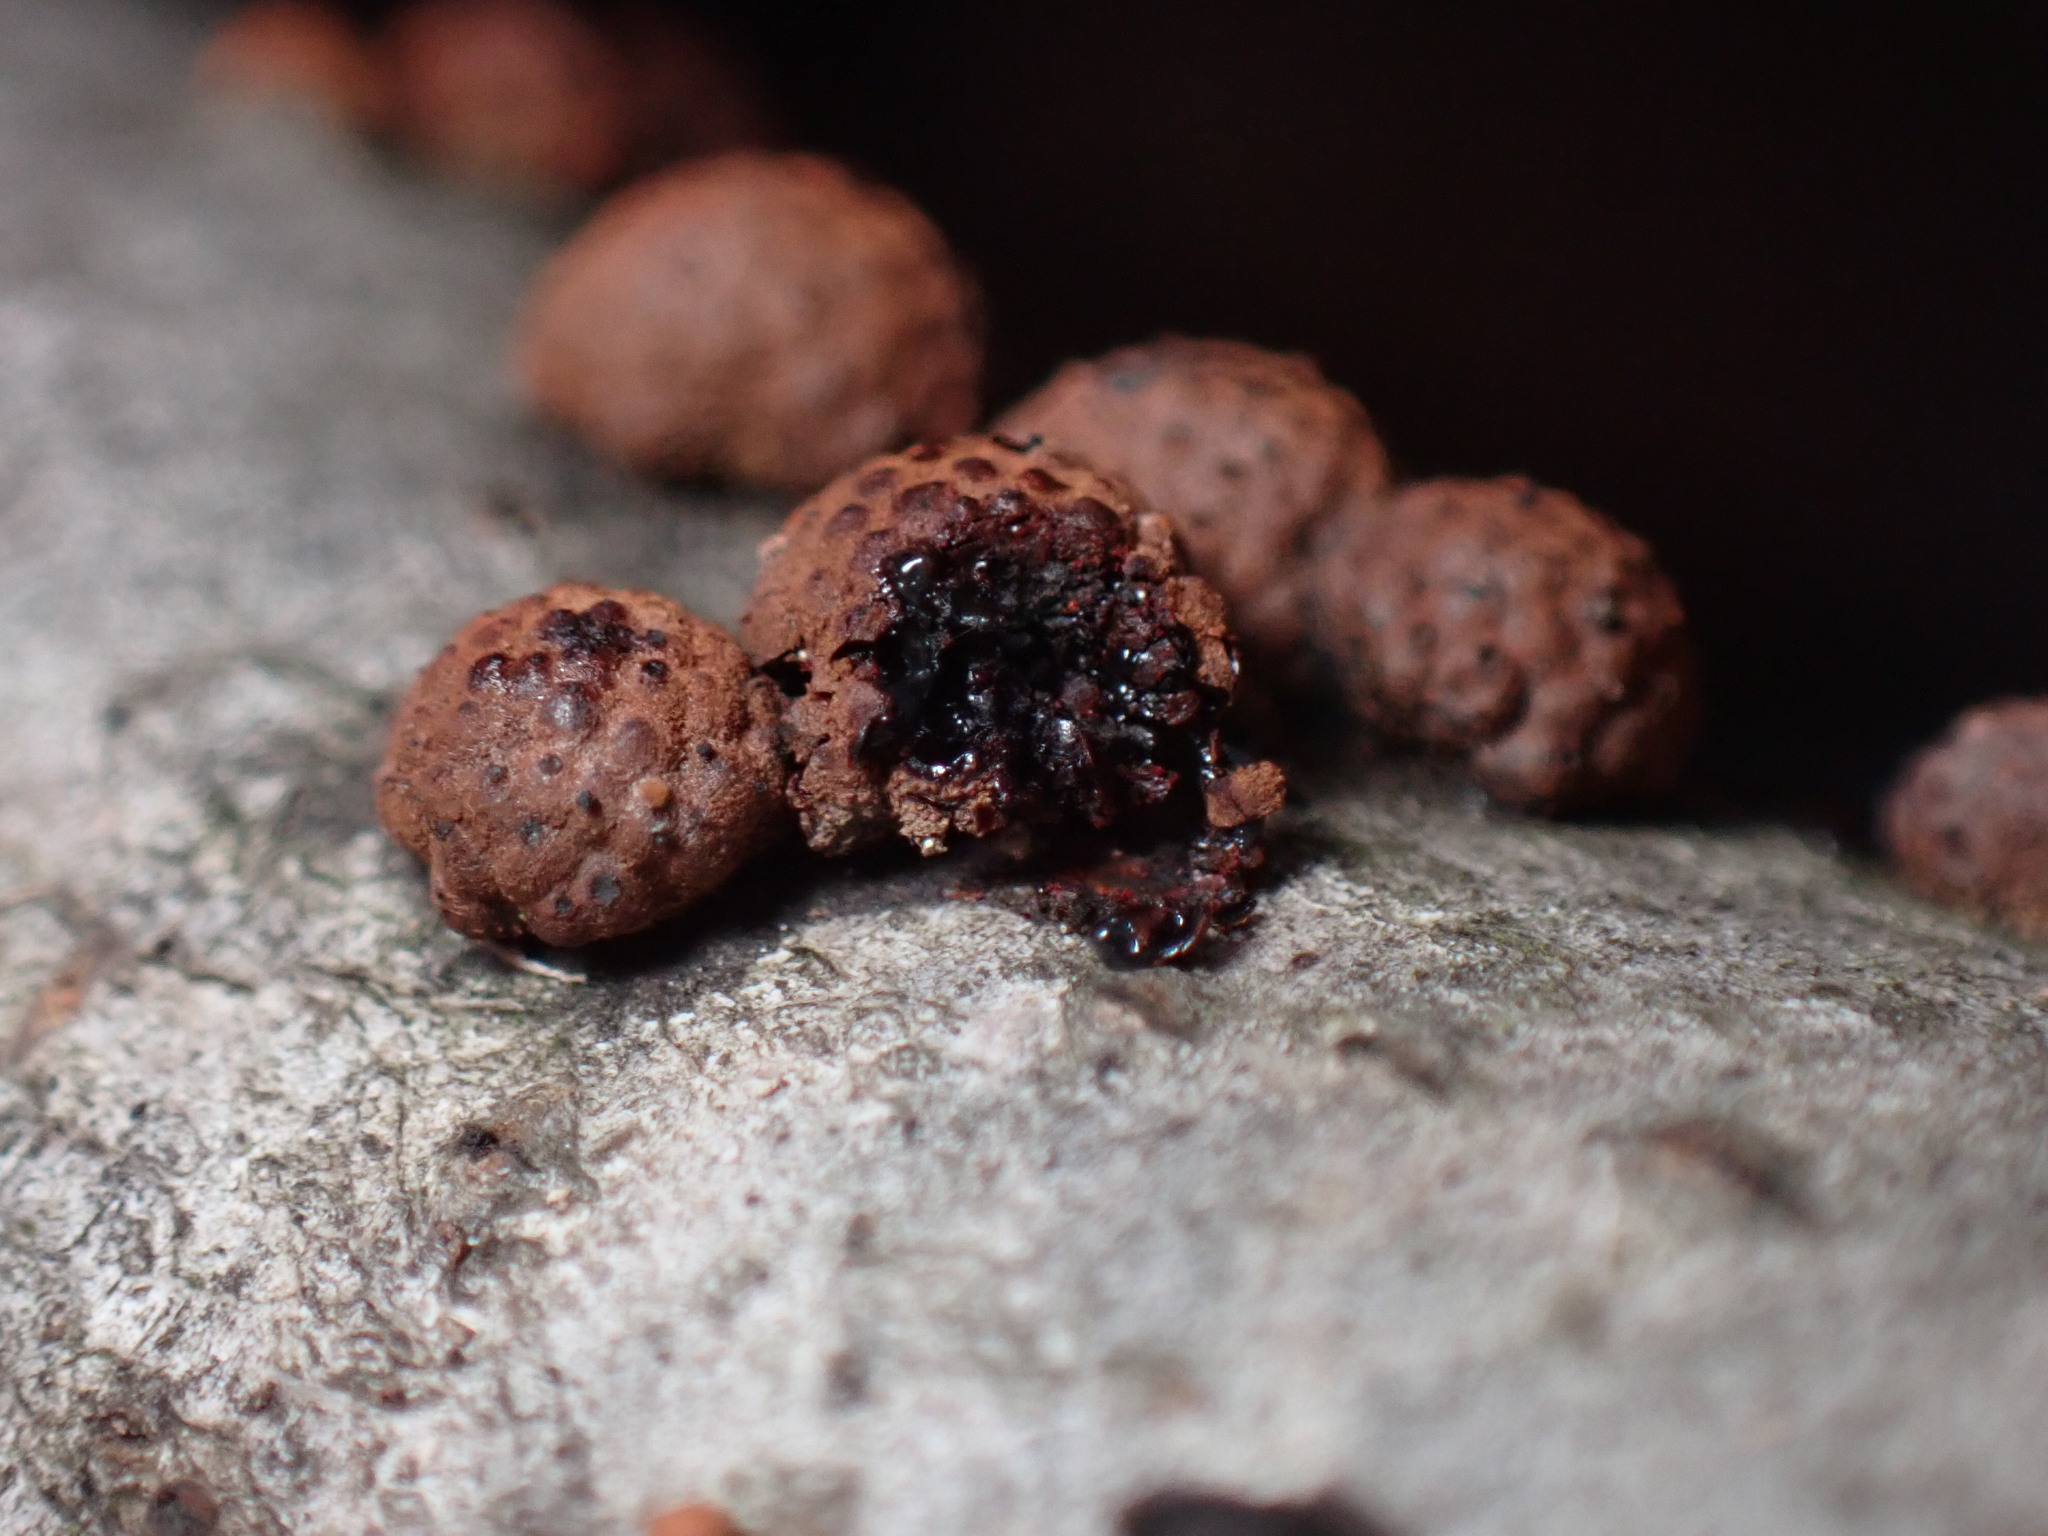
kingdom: Fungi
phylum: Ascomycota
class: Sordariomycetes
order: Xylariales
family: Hypoxylaceae
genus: Hypoxylon
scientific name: Hypoxylon fragiforme
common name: Beech woodwart
